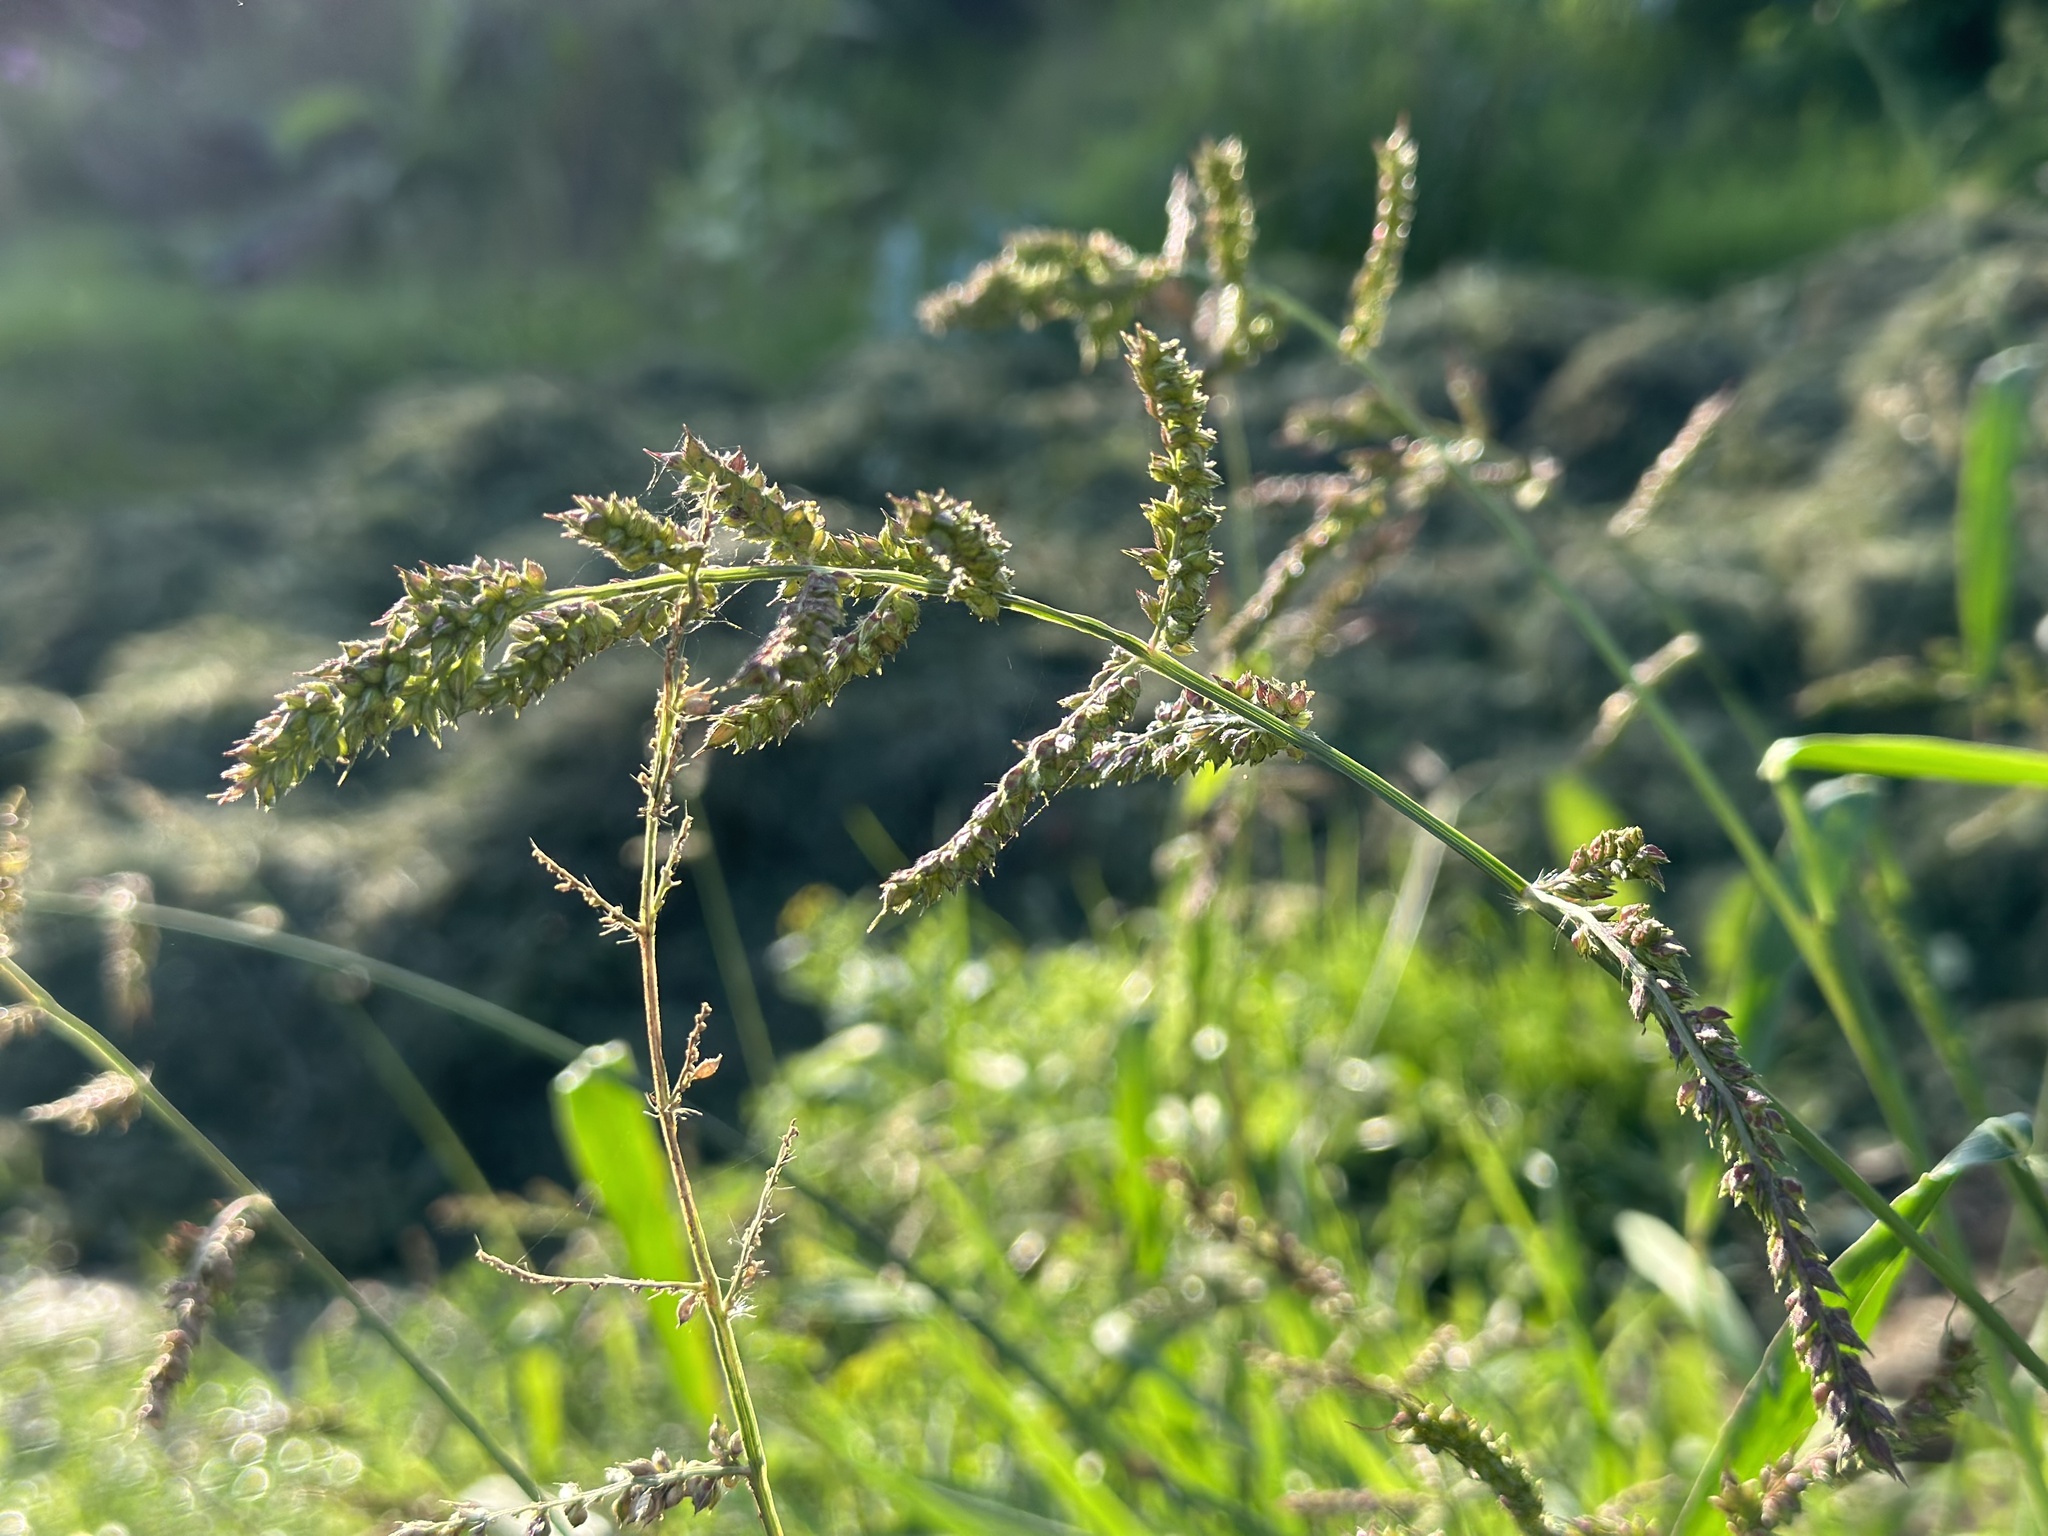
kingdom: Plantae
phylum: Tracheophyta
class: Liliopsida
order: Poales
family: Poaceae
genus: Echinochloa
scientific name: Echinochloa crus-galli
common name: Cockspur
